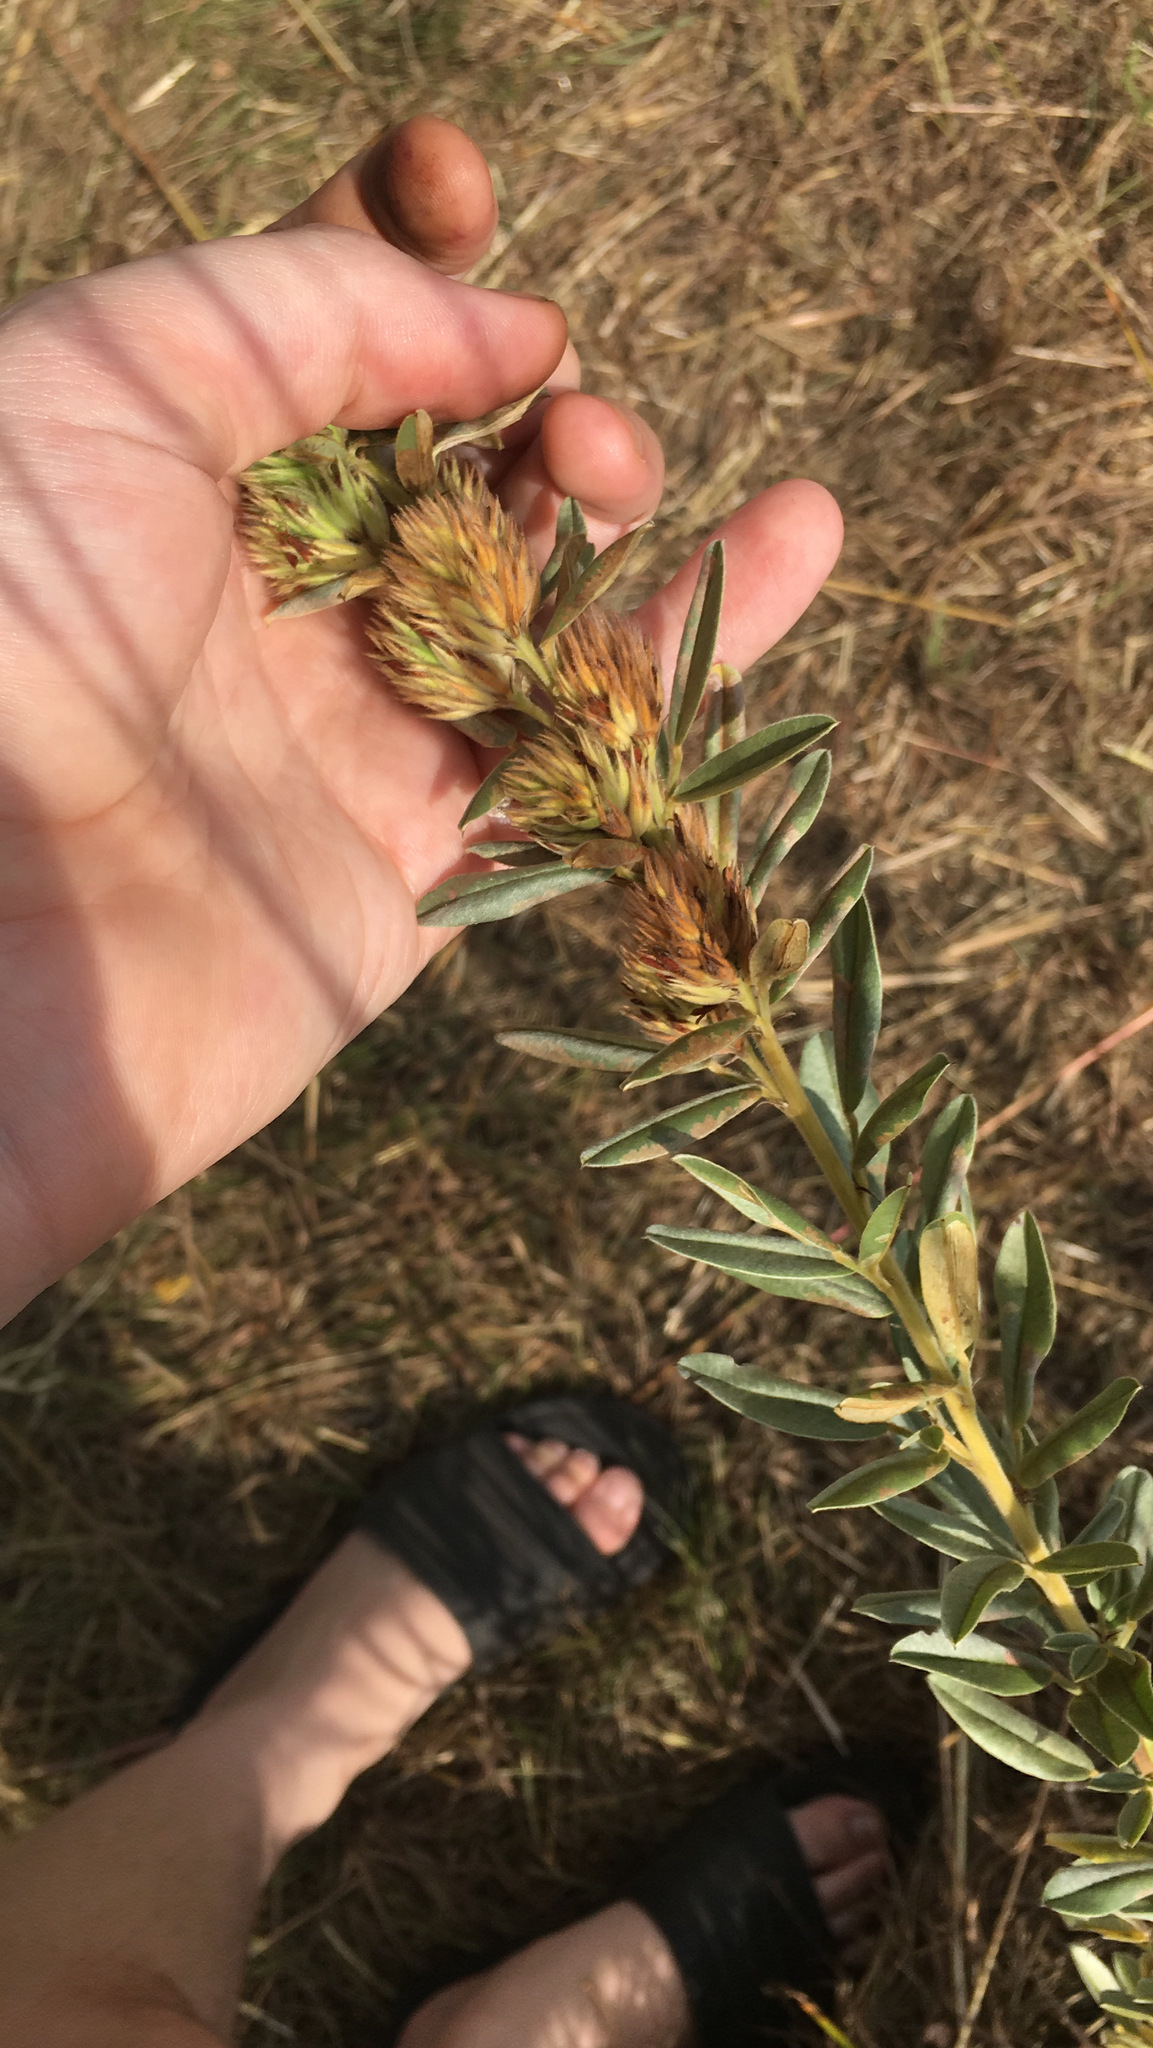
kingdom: Plantae
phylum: Tracheophyta
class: Magnoliopsida
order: Fabales
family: Fabaceae
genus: Lespedeza
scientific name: Lespedeza capitata
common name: Dusty clover
